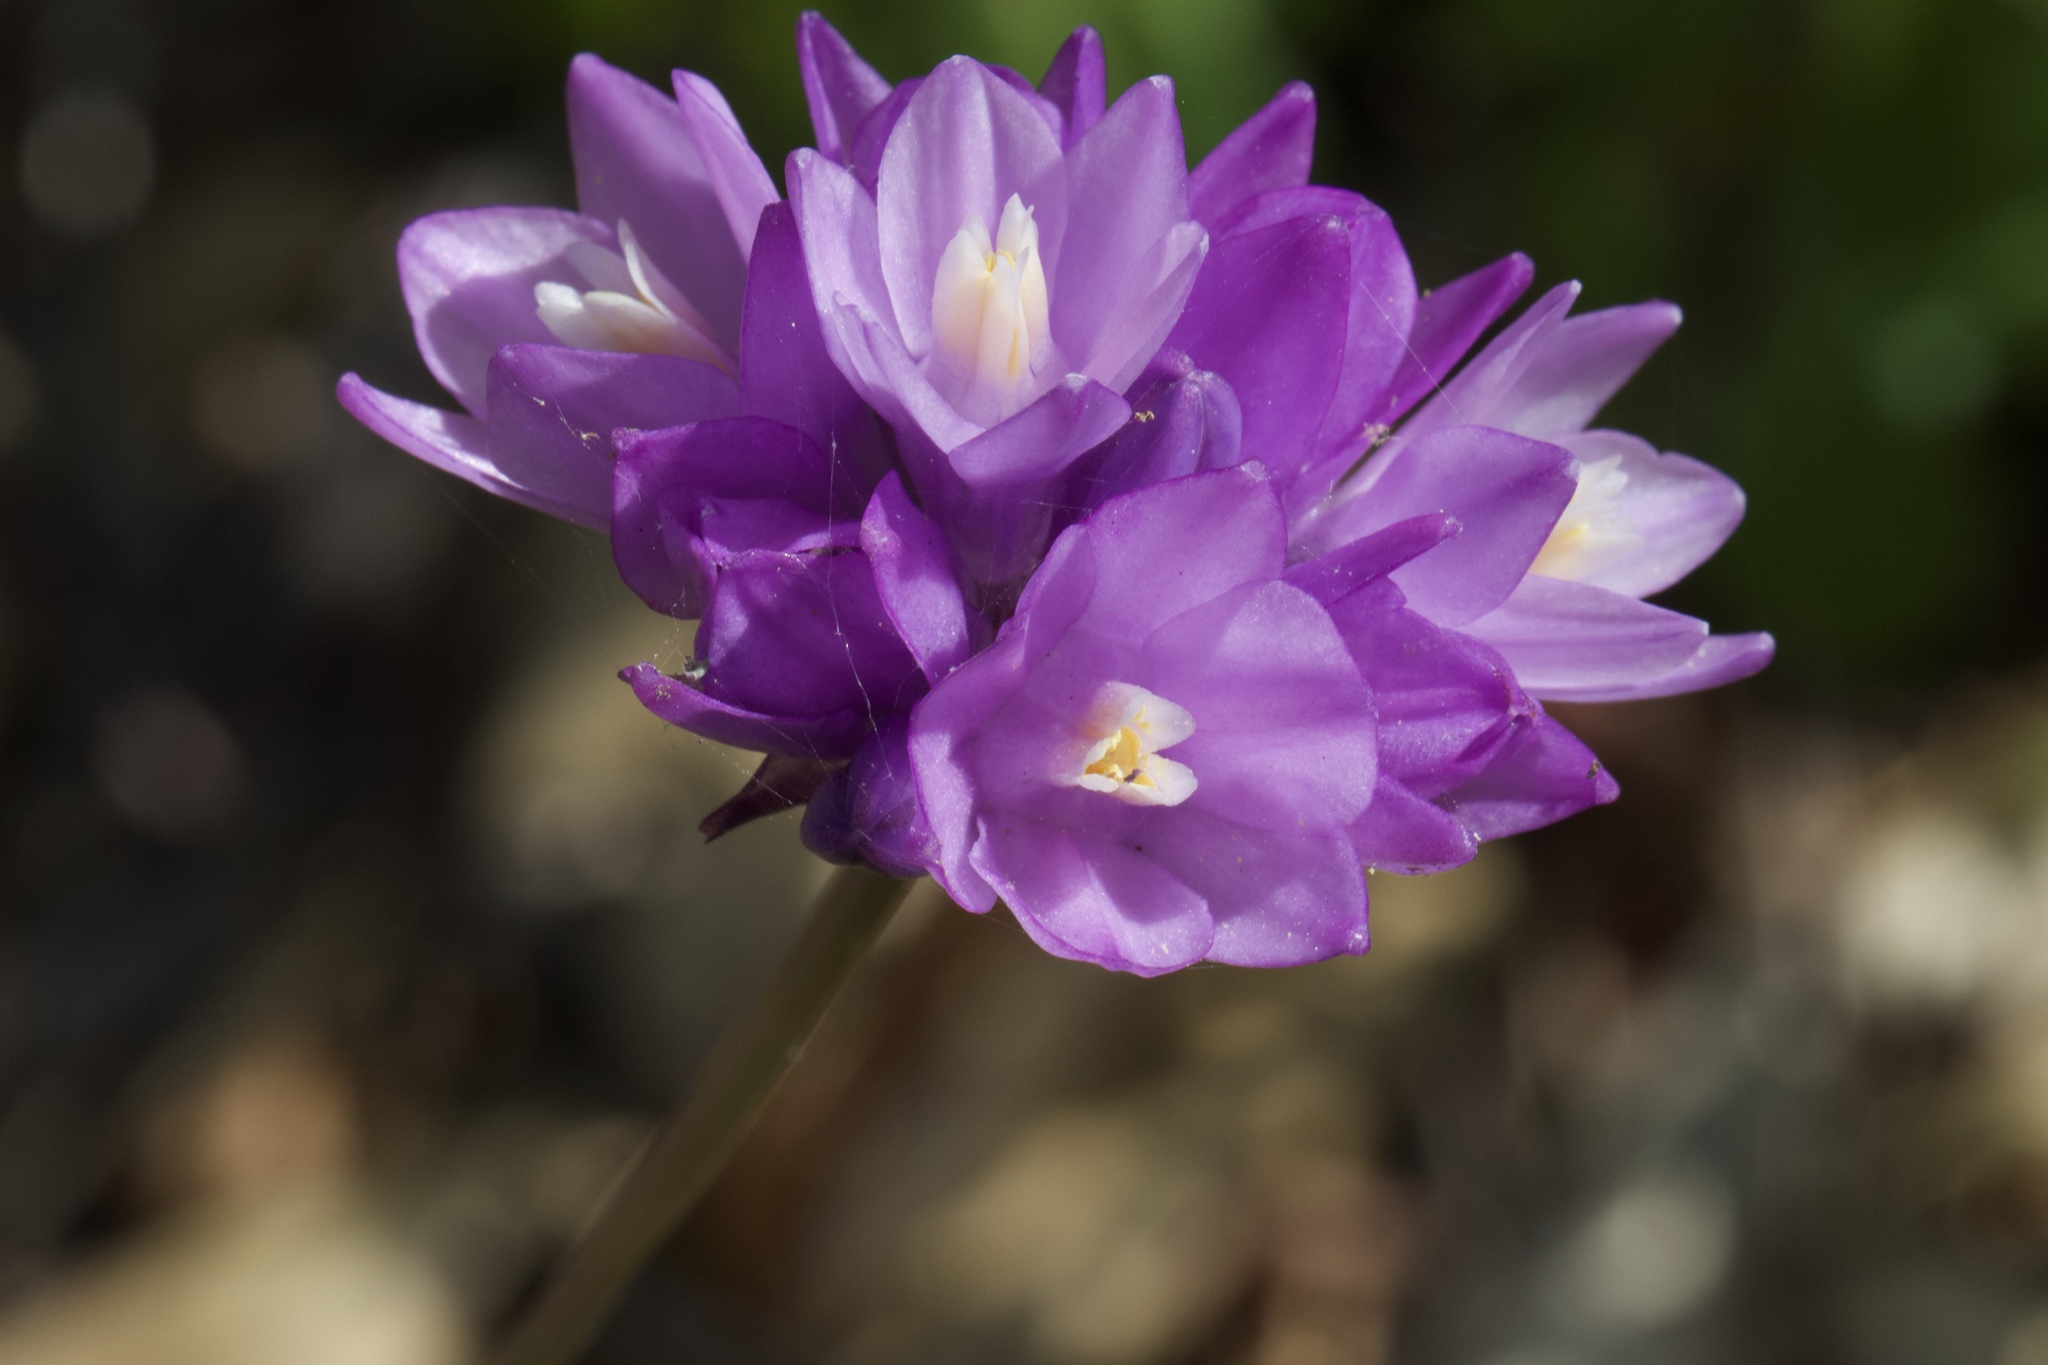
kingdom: Plantae
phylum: Tracheophyta
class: Liliopsida
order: Asparagales
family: Asparagaceae
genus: Dipterostemon
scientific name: Dipterostemon capitatus
